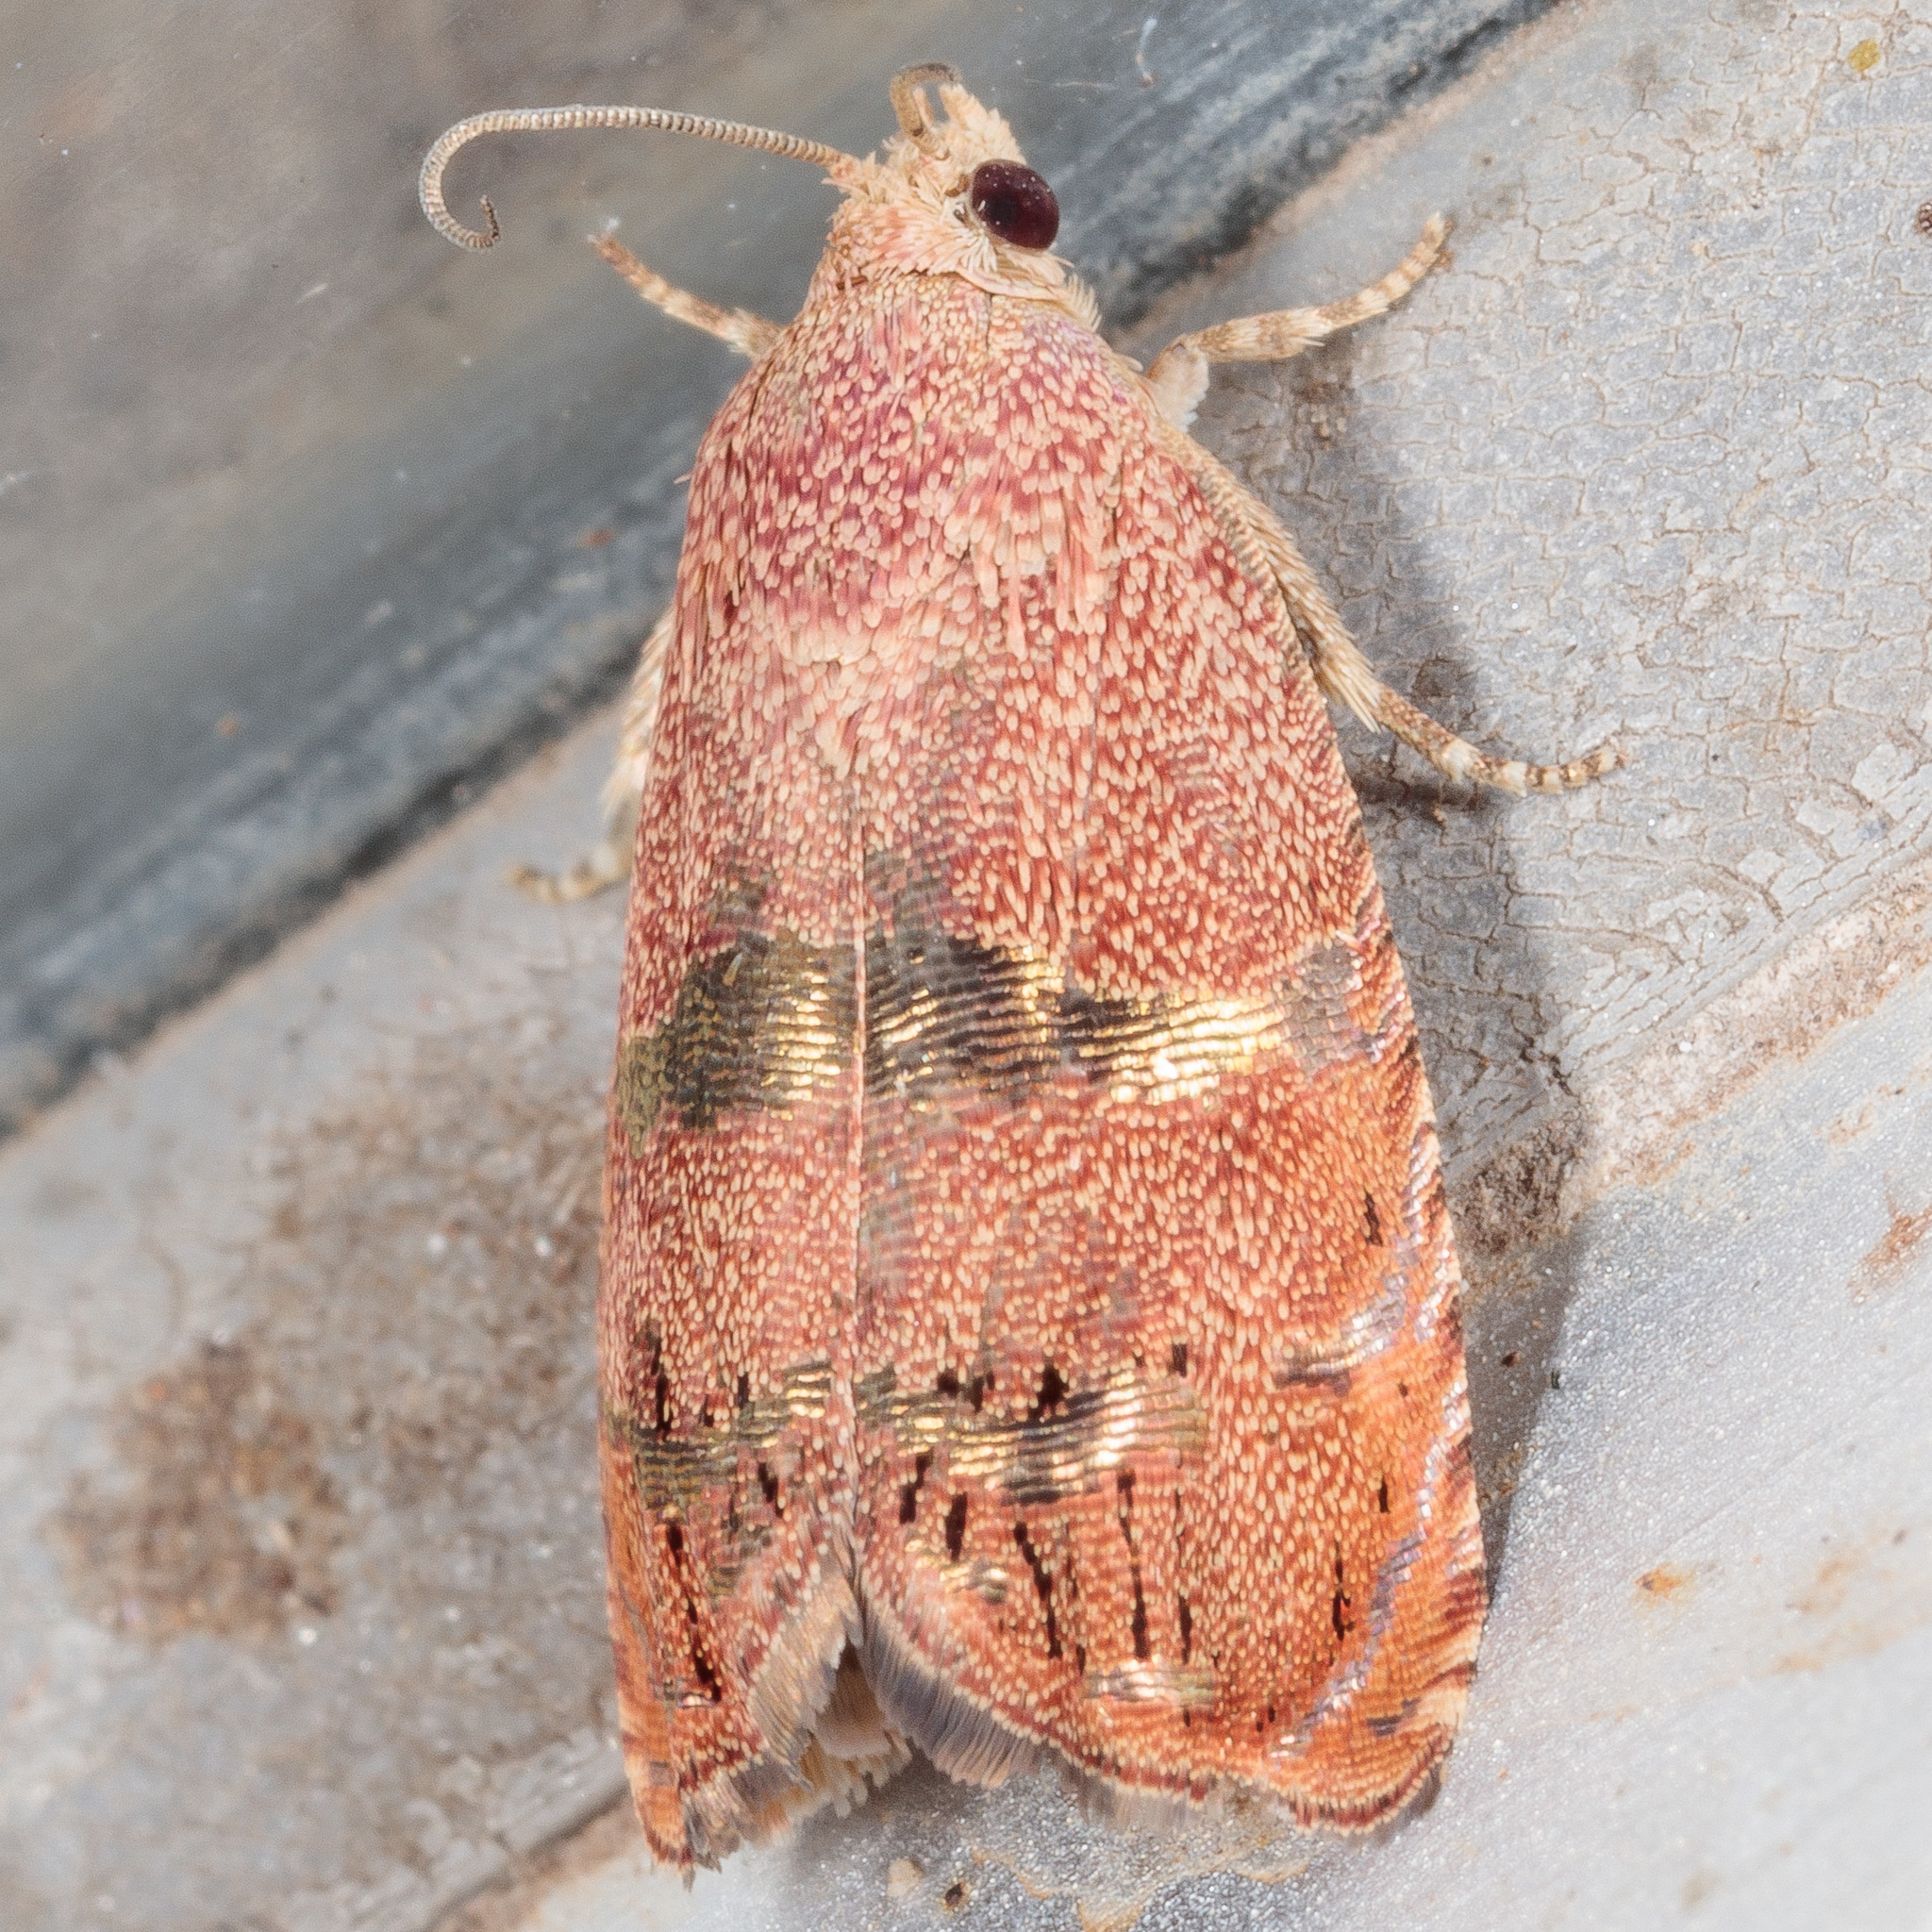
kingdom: Animalia
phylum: Arthropoda
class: Insecta
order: Lepidoptera
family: Tortricidae
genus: Cydia
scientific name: Cydia latiferreana
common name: Filbertworm moth
